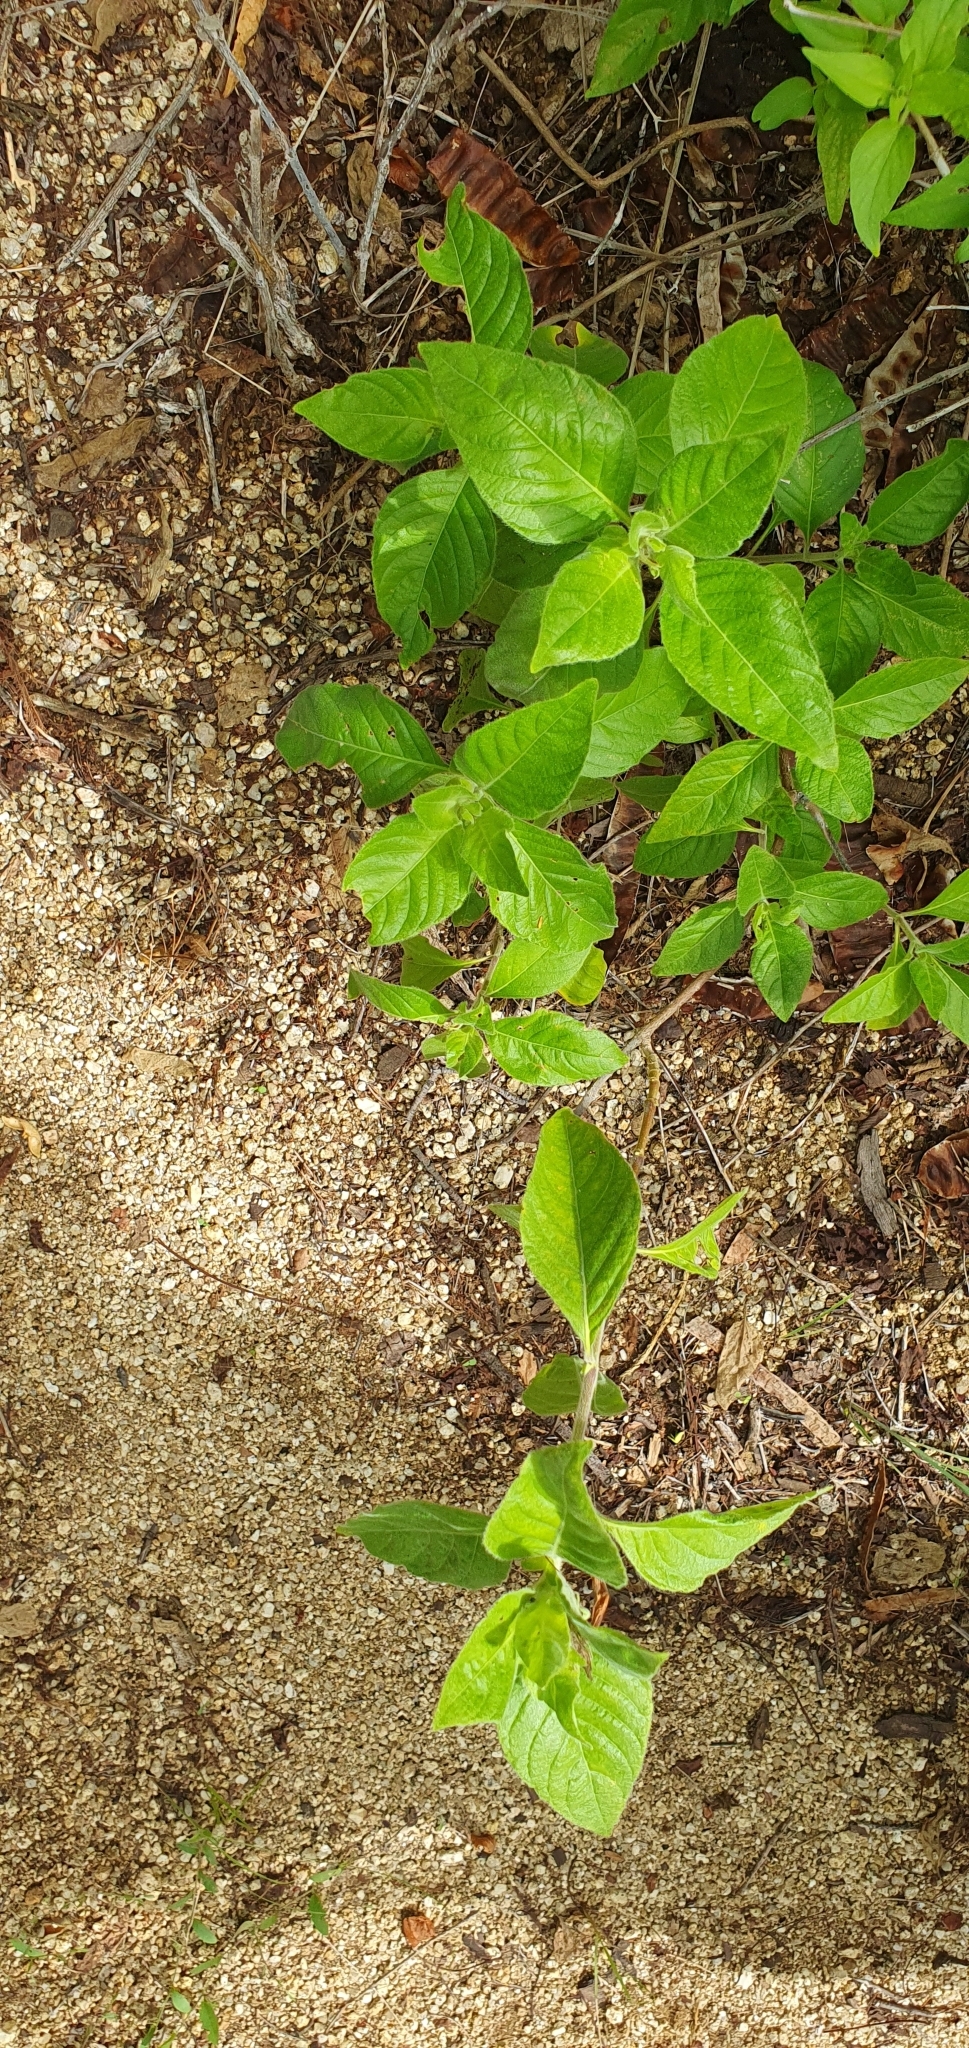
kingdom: Plantae
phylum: Tracheophyta
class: Magnoliopsida
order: Lamiales
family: Acanthaceae
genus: Ruellia
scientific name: Ruellia leucantha
